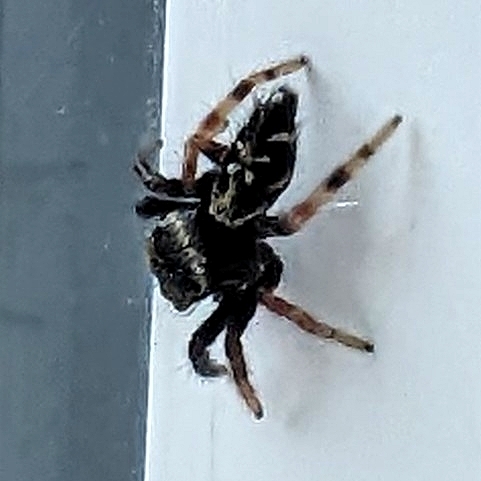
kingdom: Animalia
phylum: Arthropoda
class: Arachnida
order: Araneae
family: Salticidae
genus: Paraphidippus
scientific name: Paraphidippus aurantius
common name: Jumping spiders
